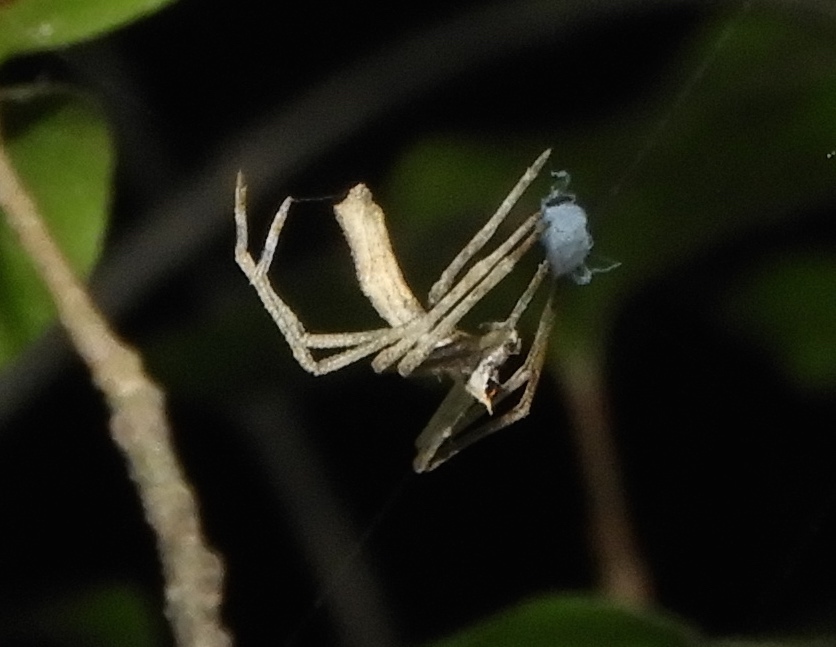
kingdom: Animalia
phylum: Arthropoda
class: Arachnida
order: Araneae
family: Deinopidae
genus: Deinopis
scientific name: Deinopis aurita
